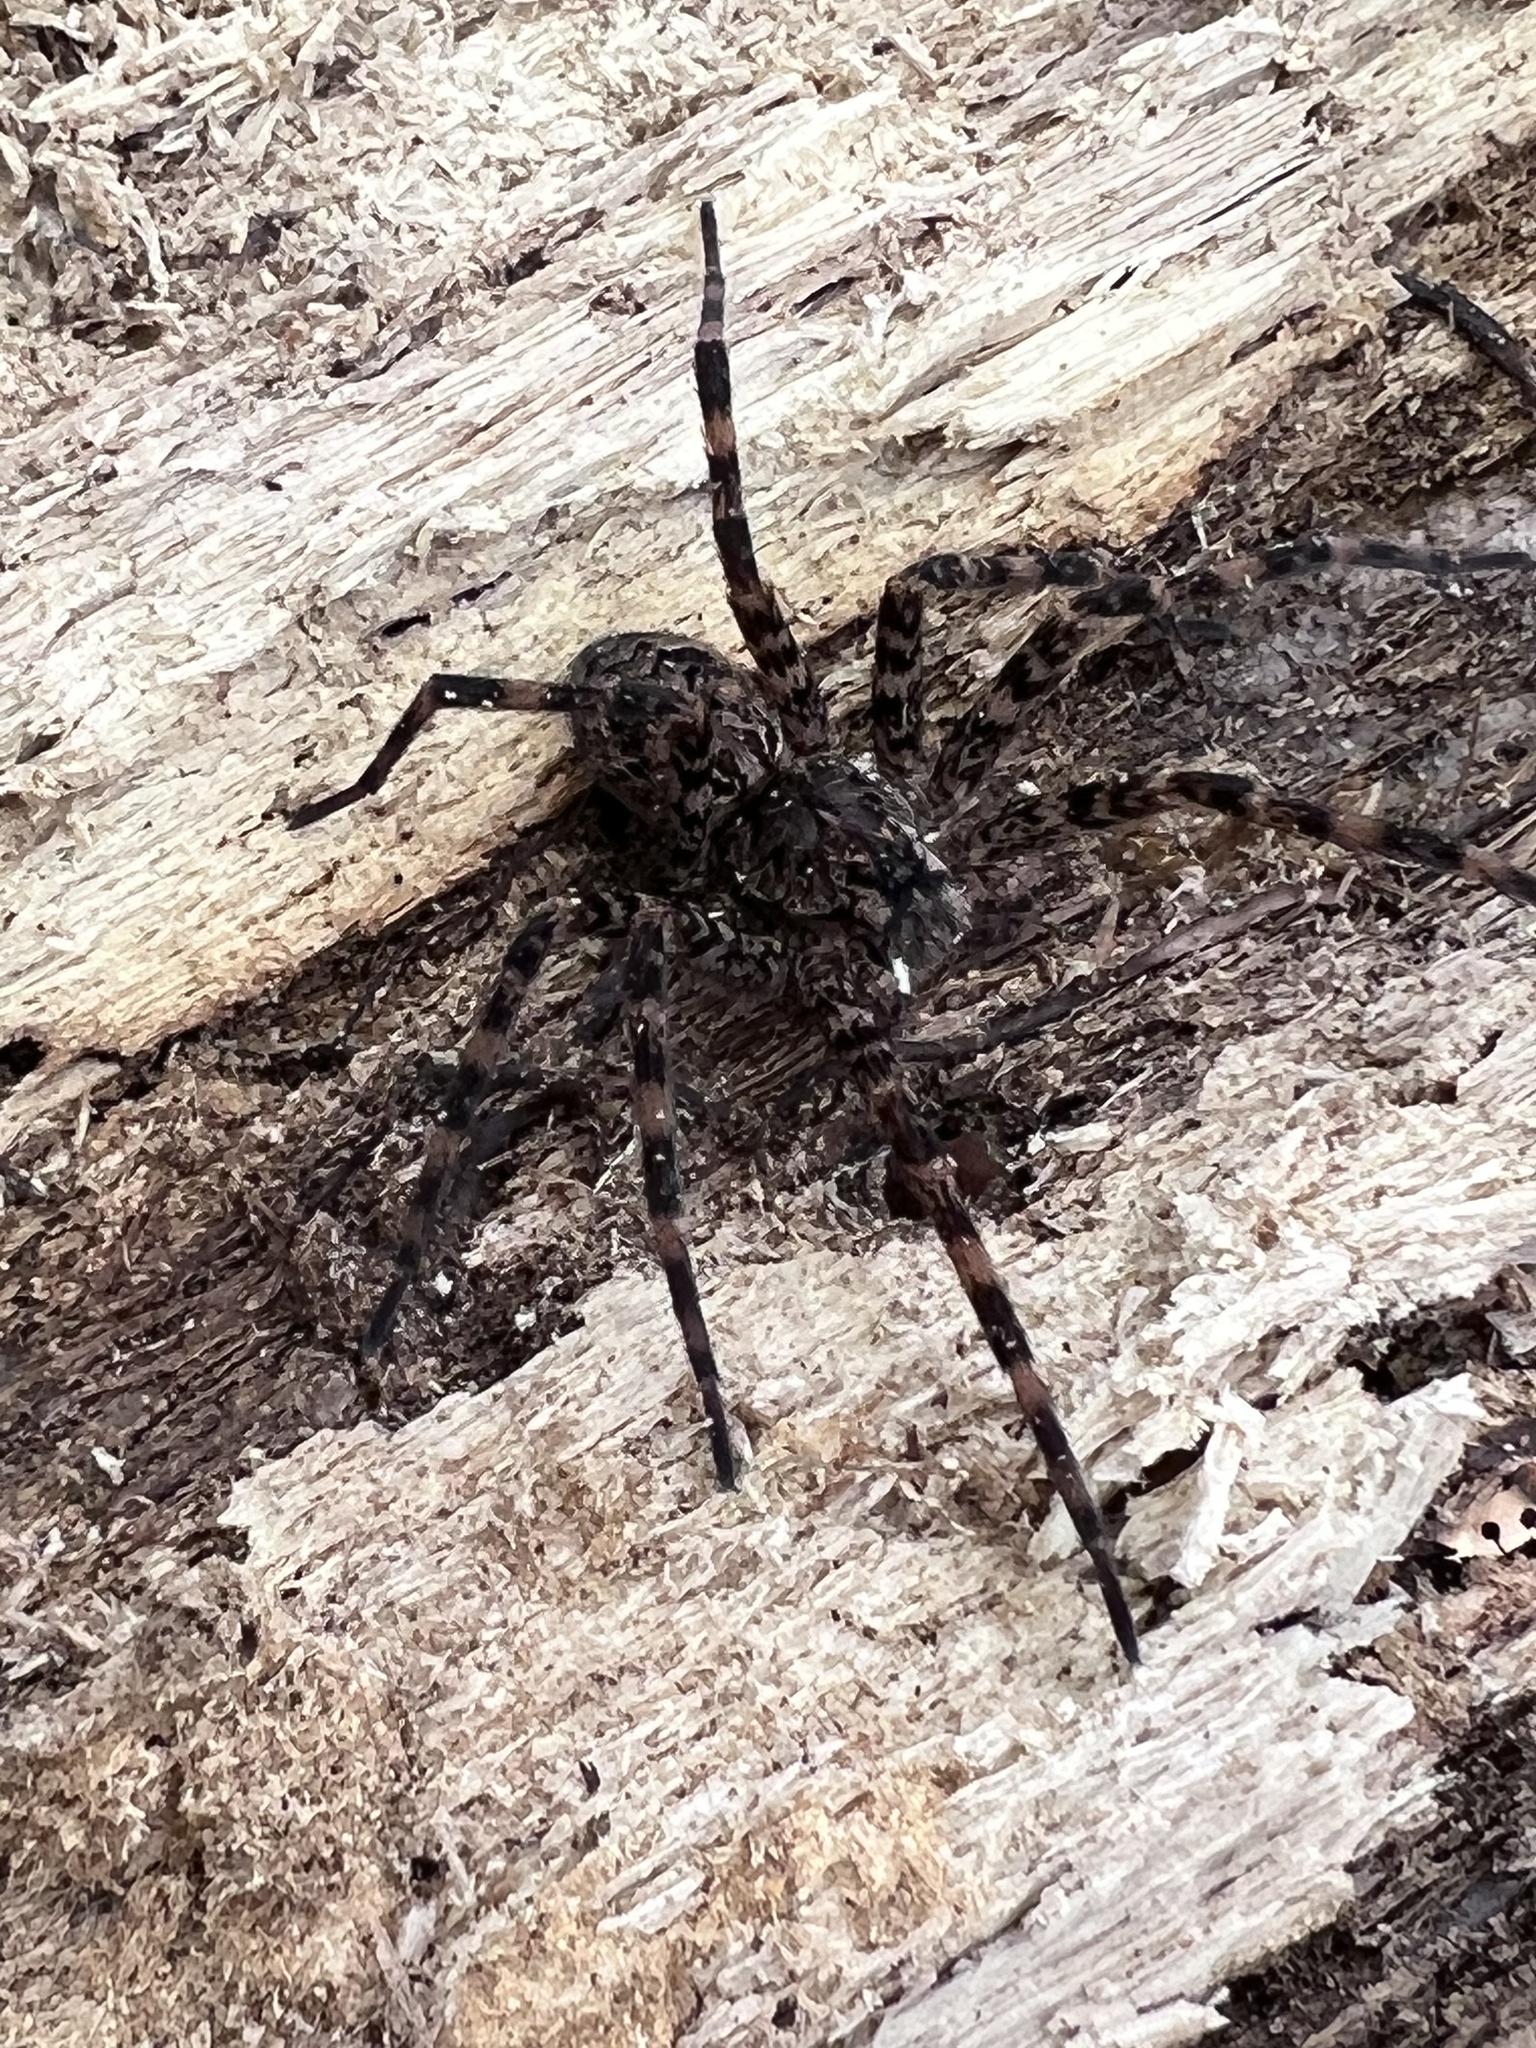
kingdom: Animalia
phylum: Arthropoda
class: Arachnida
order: Araneae
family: Pisauridae
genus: Dolomedes
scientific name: Dolomedes tenebrosus
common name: Dark fishing spider
